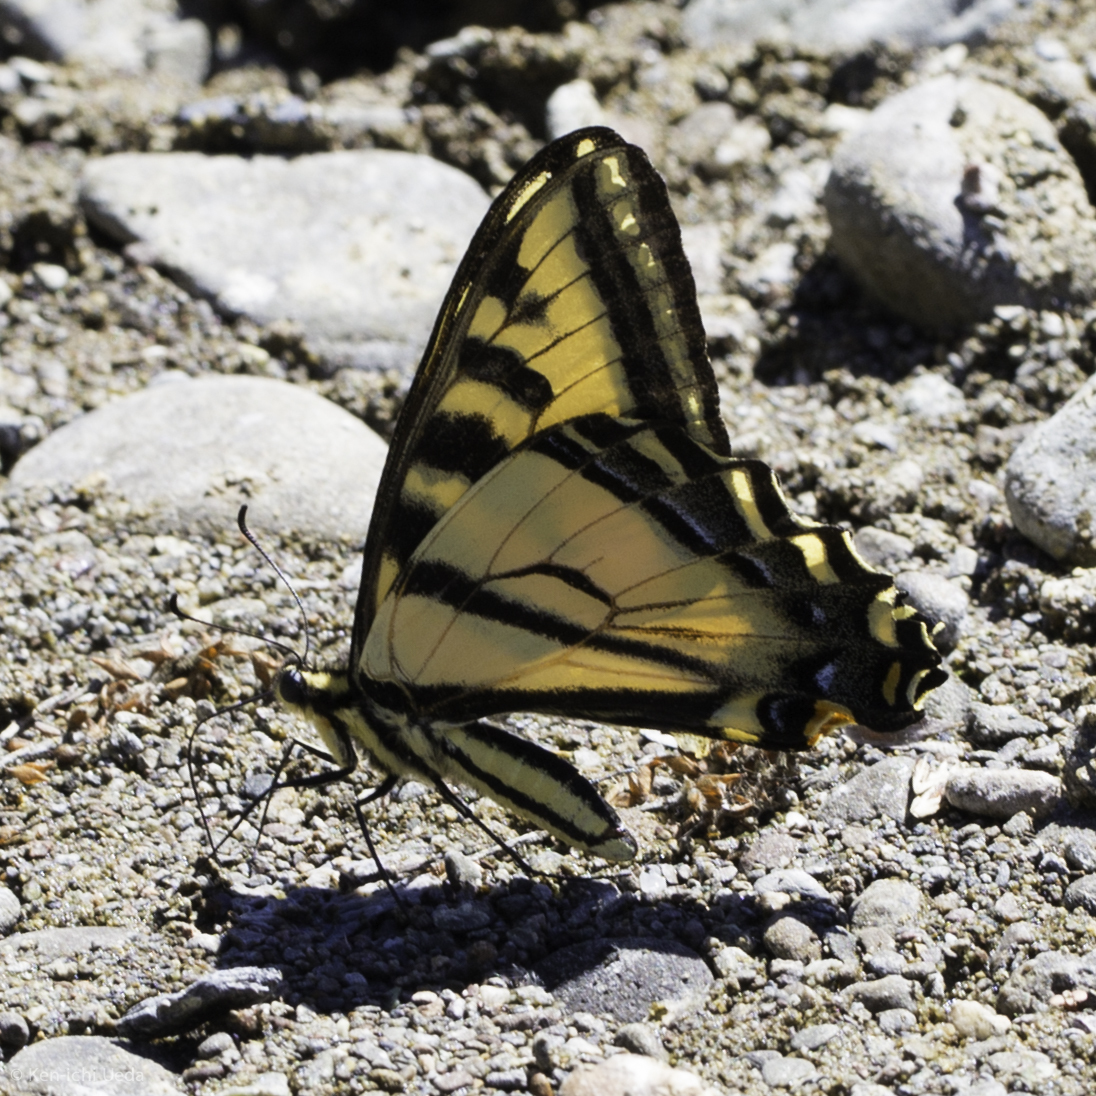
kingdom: Animalia
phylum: Arthropoda
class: Insecta
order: Lepidoptera
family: Papilionidae
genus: Papilio
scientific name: Papilio rutulus
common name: Western tiger swallowtail
